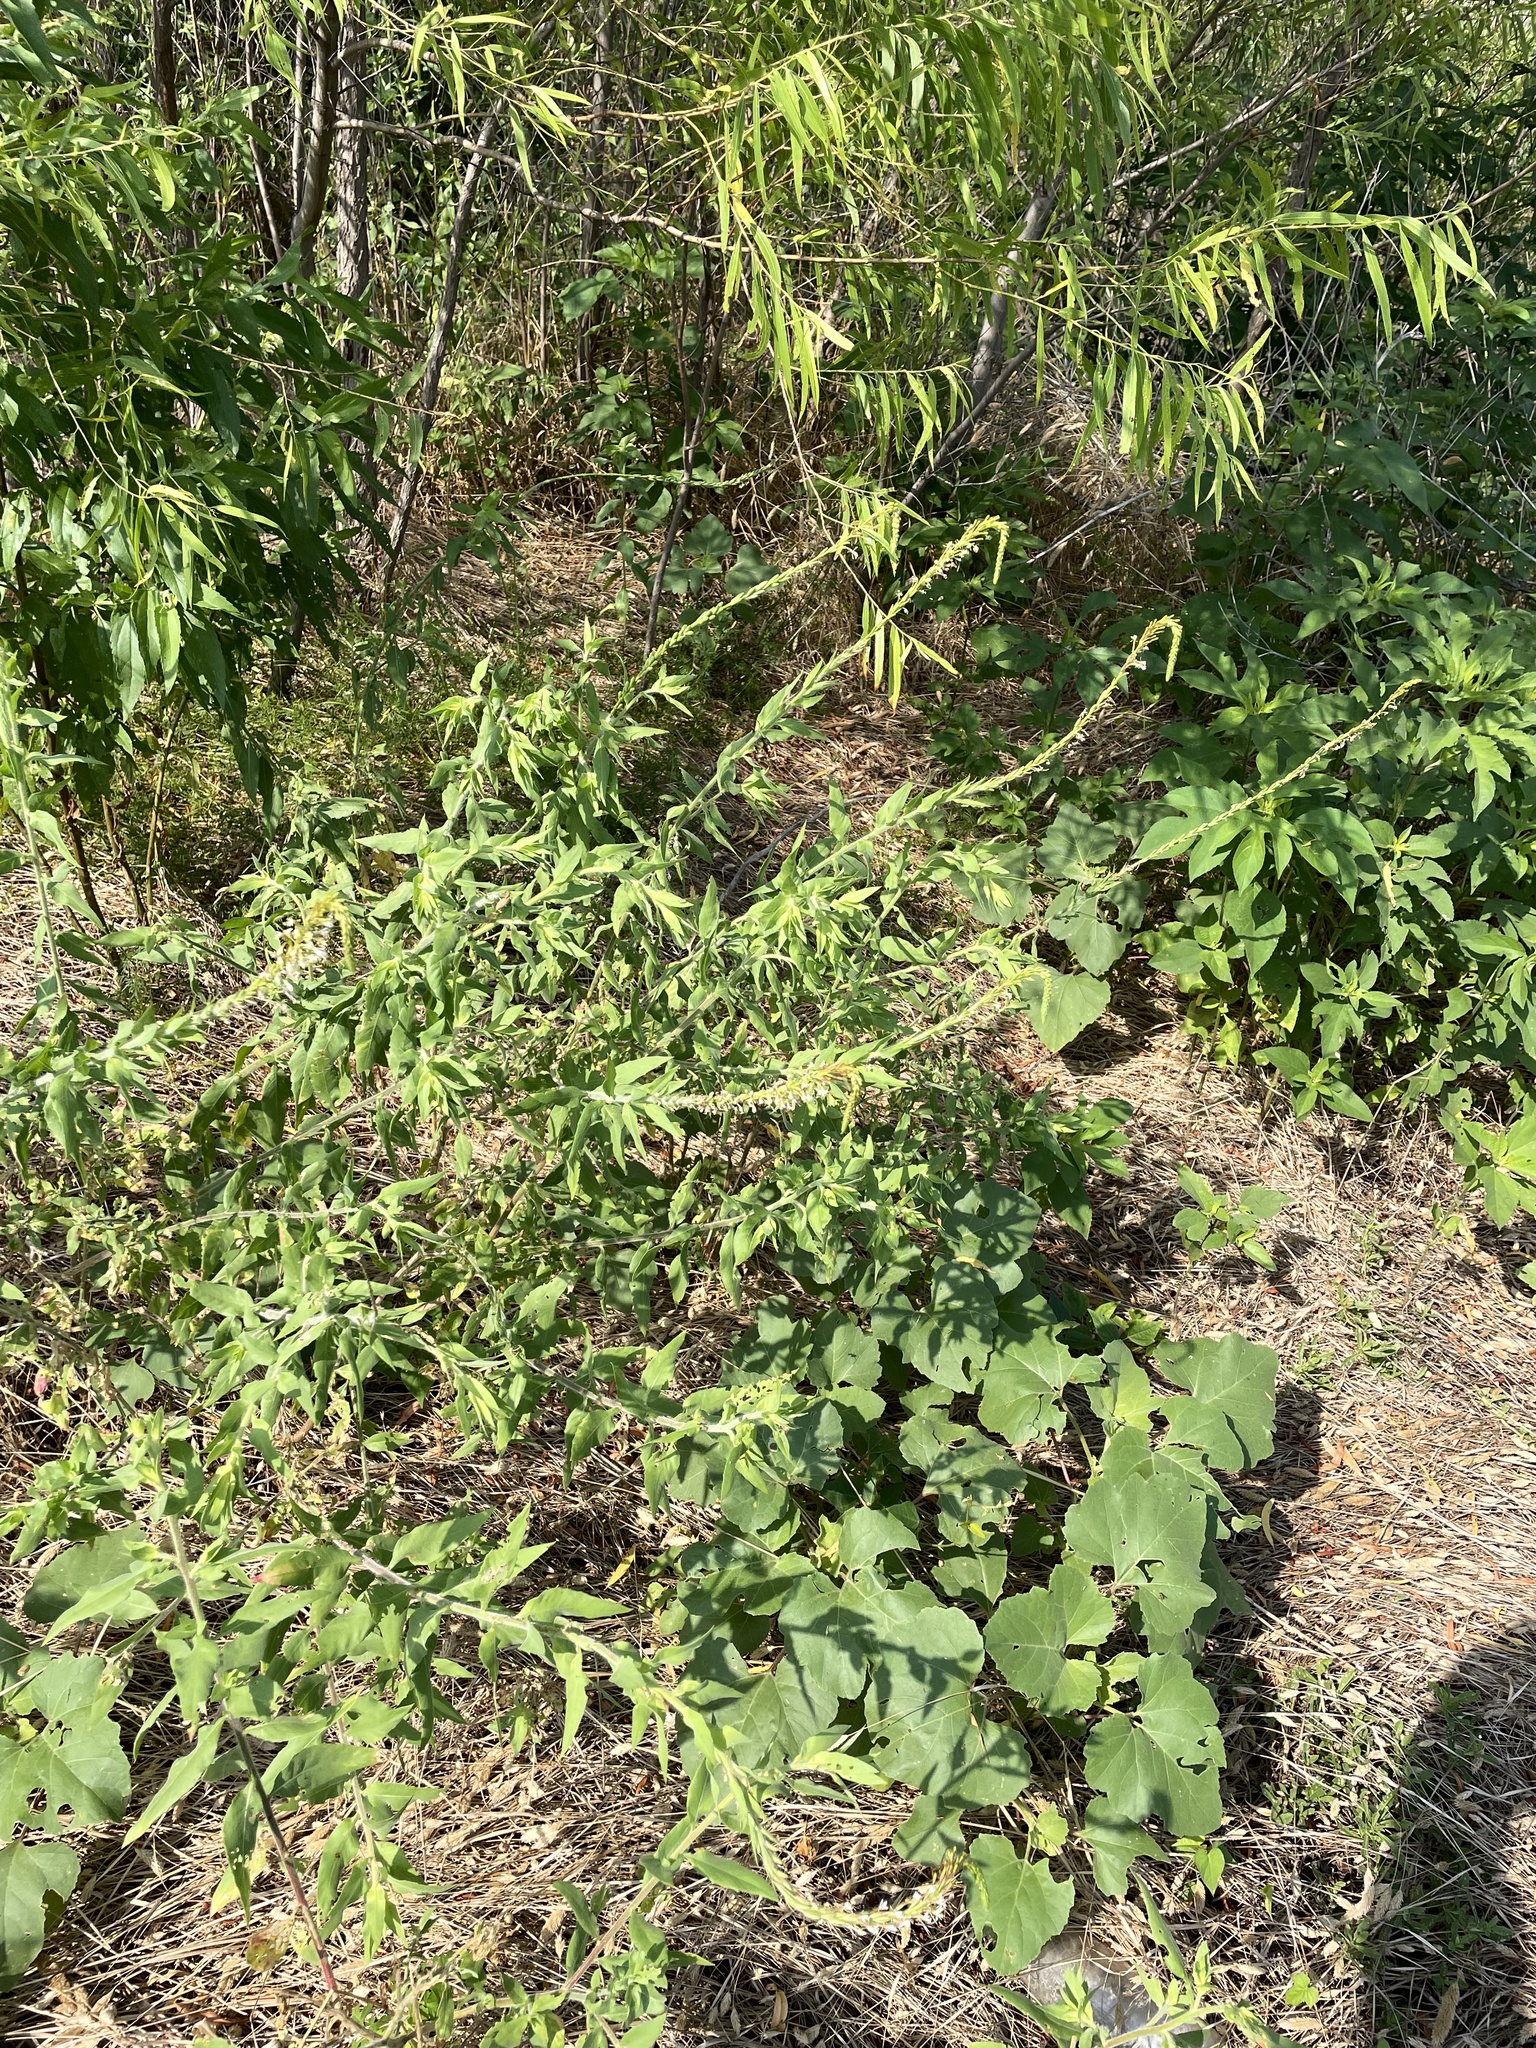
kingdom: Plantae
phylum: Tracheophyta
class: Magnoliopsida
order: Myrtales
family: Onagraceae
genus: Oenothera
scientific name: Oenothera curtiflora
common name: Velvetweed
